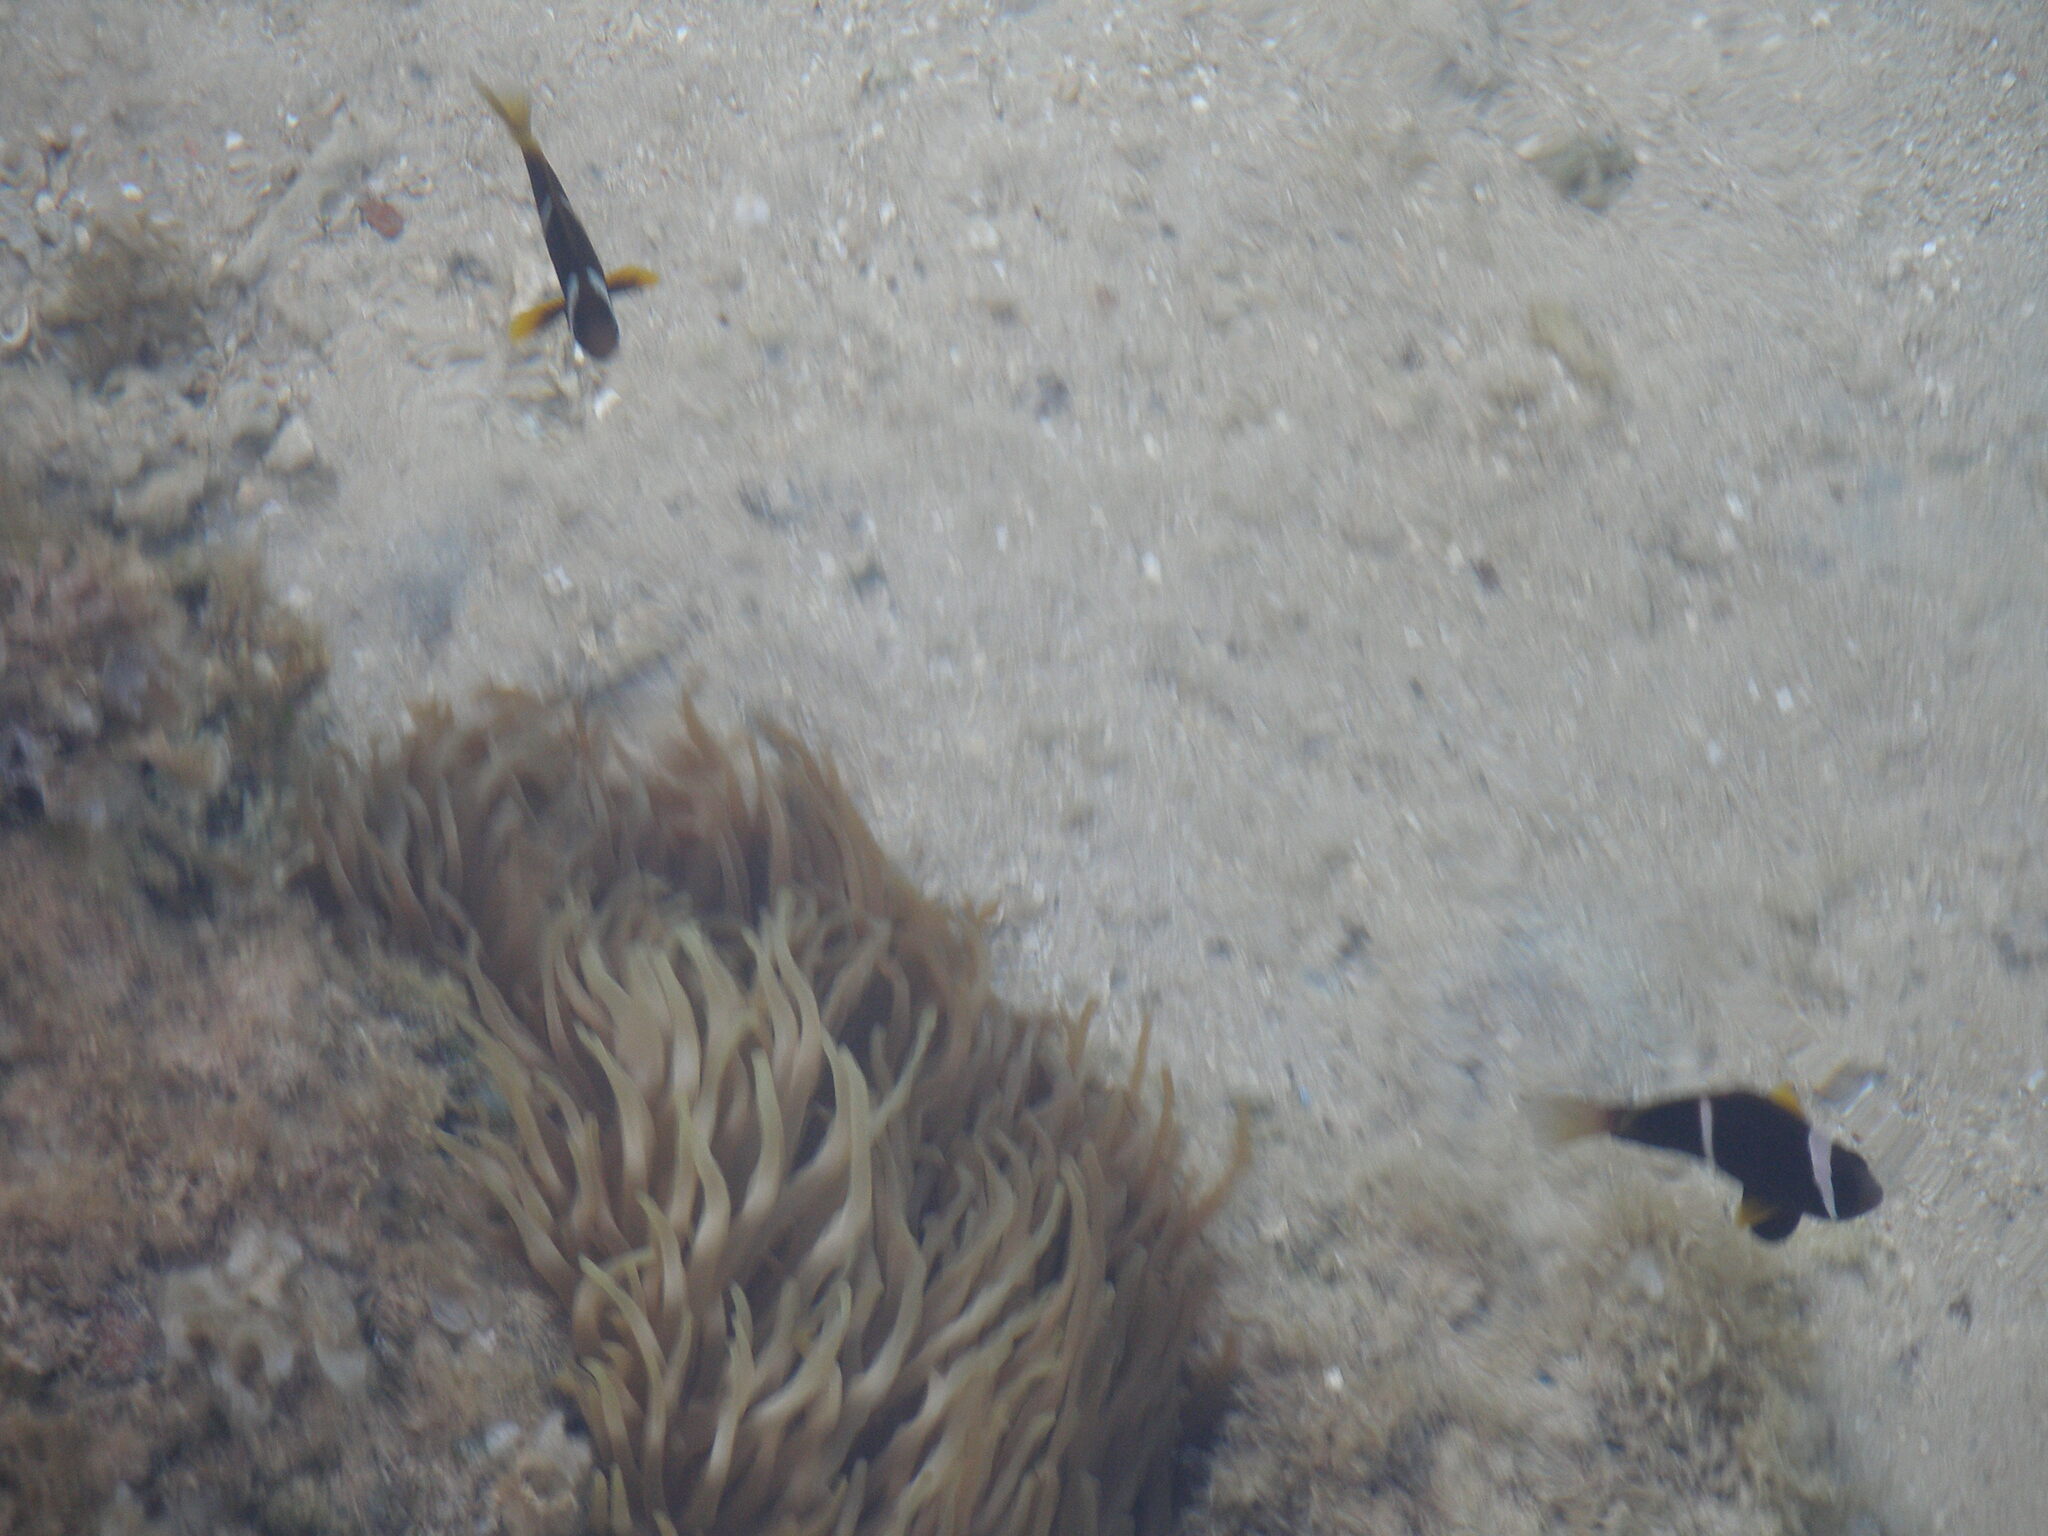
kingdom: Animalia
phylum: Chordata
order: Perciformes
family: Pomacentridae
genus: Amphiprion
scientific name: Amphiprion bicinctus
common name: Two-banded anemonefish
